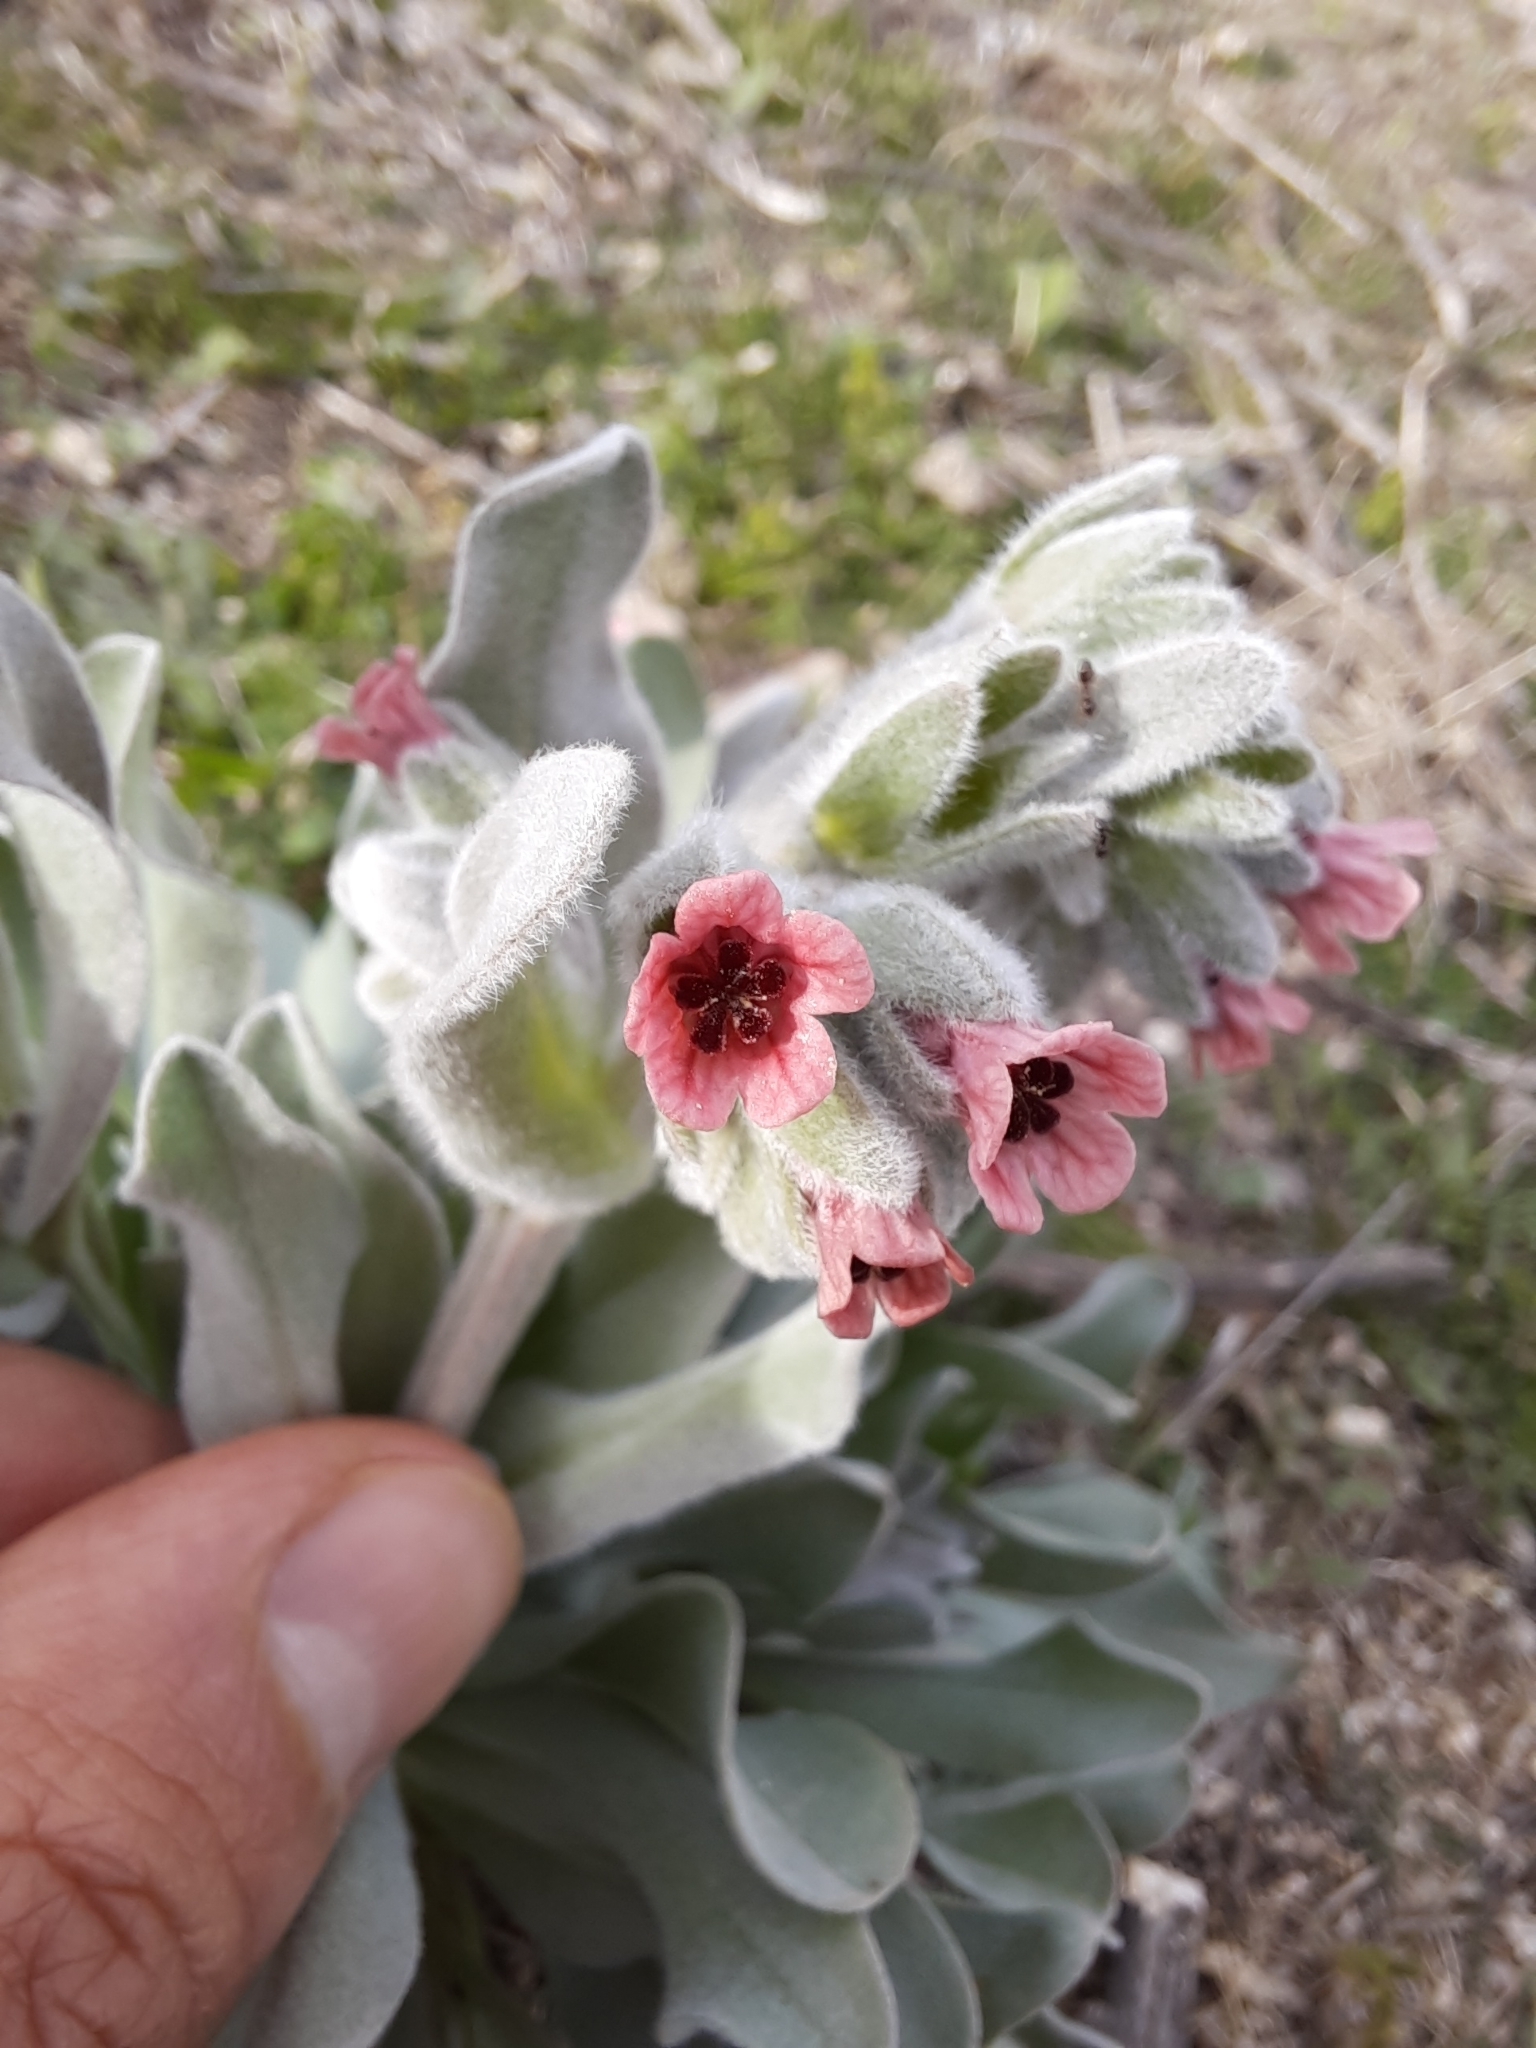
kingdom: Plantae
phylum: Tracheophyta
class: Magnoliopsida
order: Boraginales
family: Boraginaceae
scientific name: Boraginaceae
